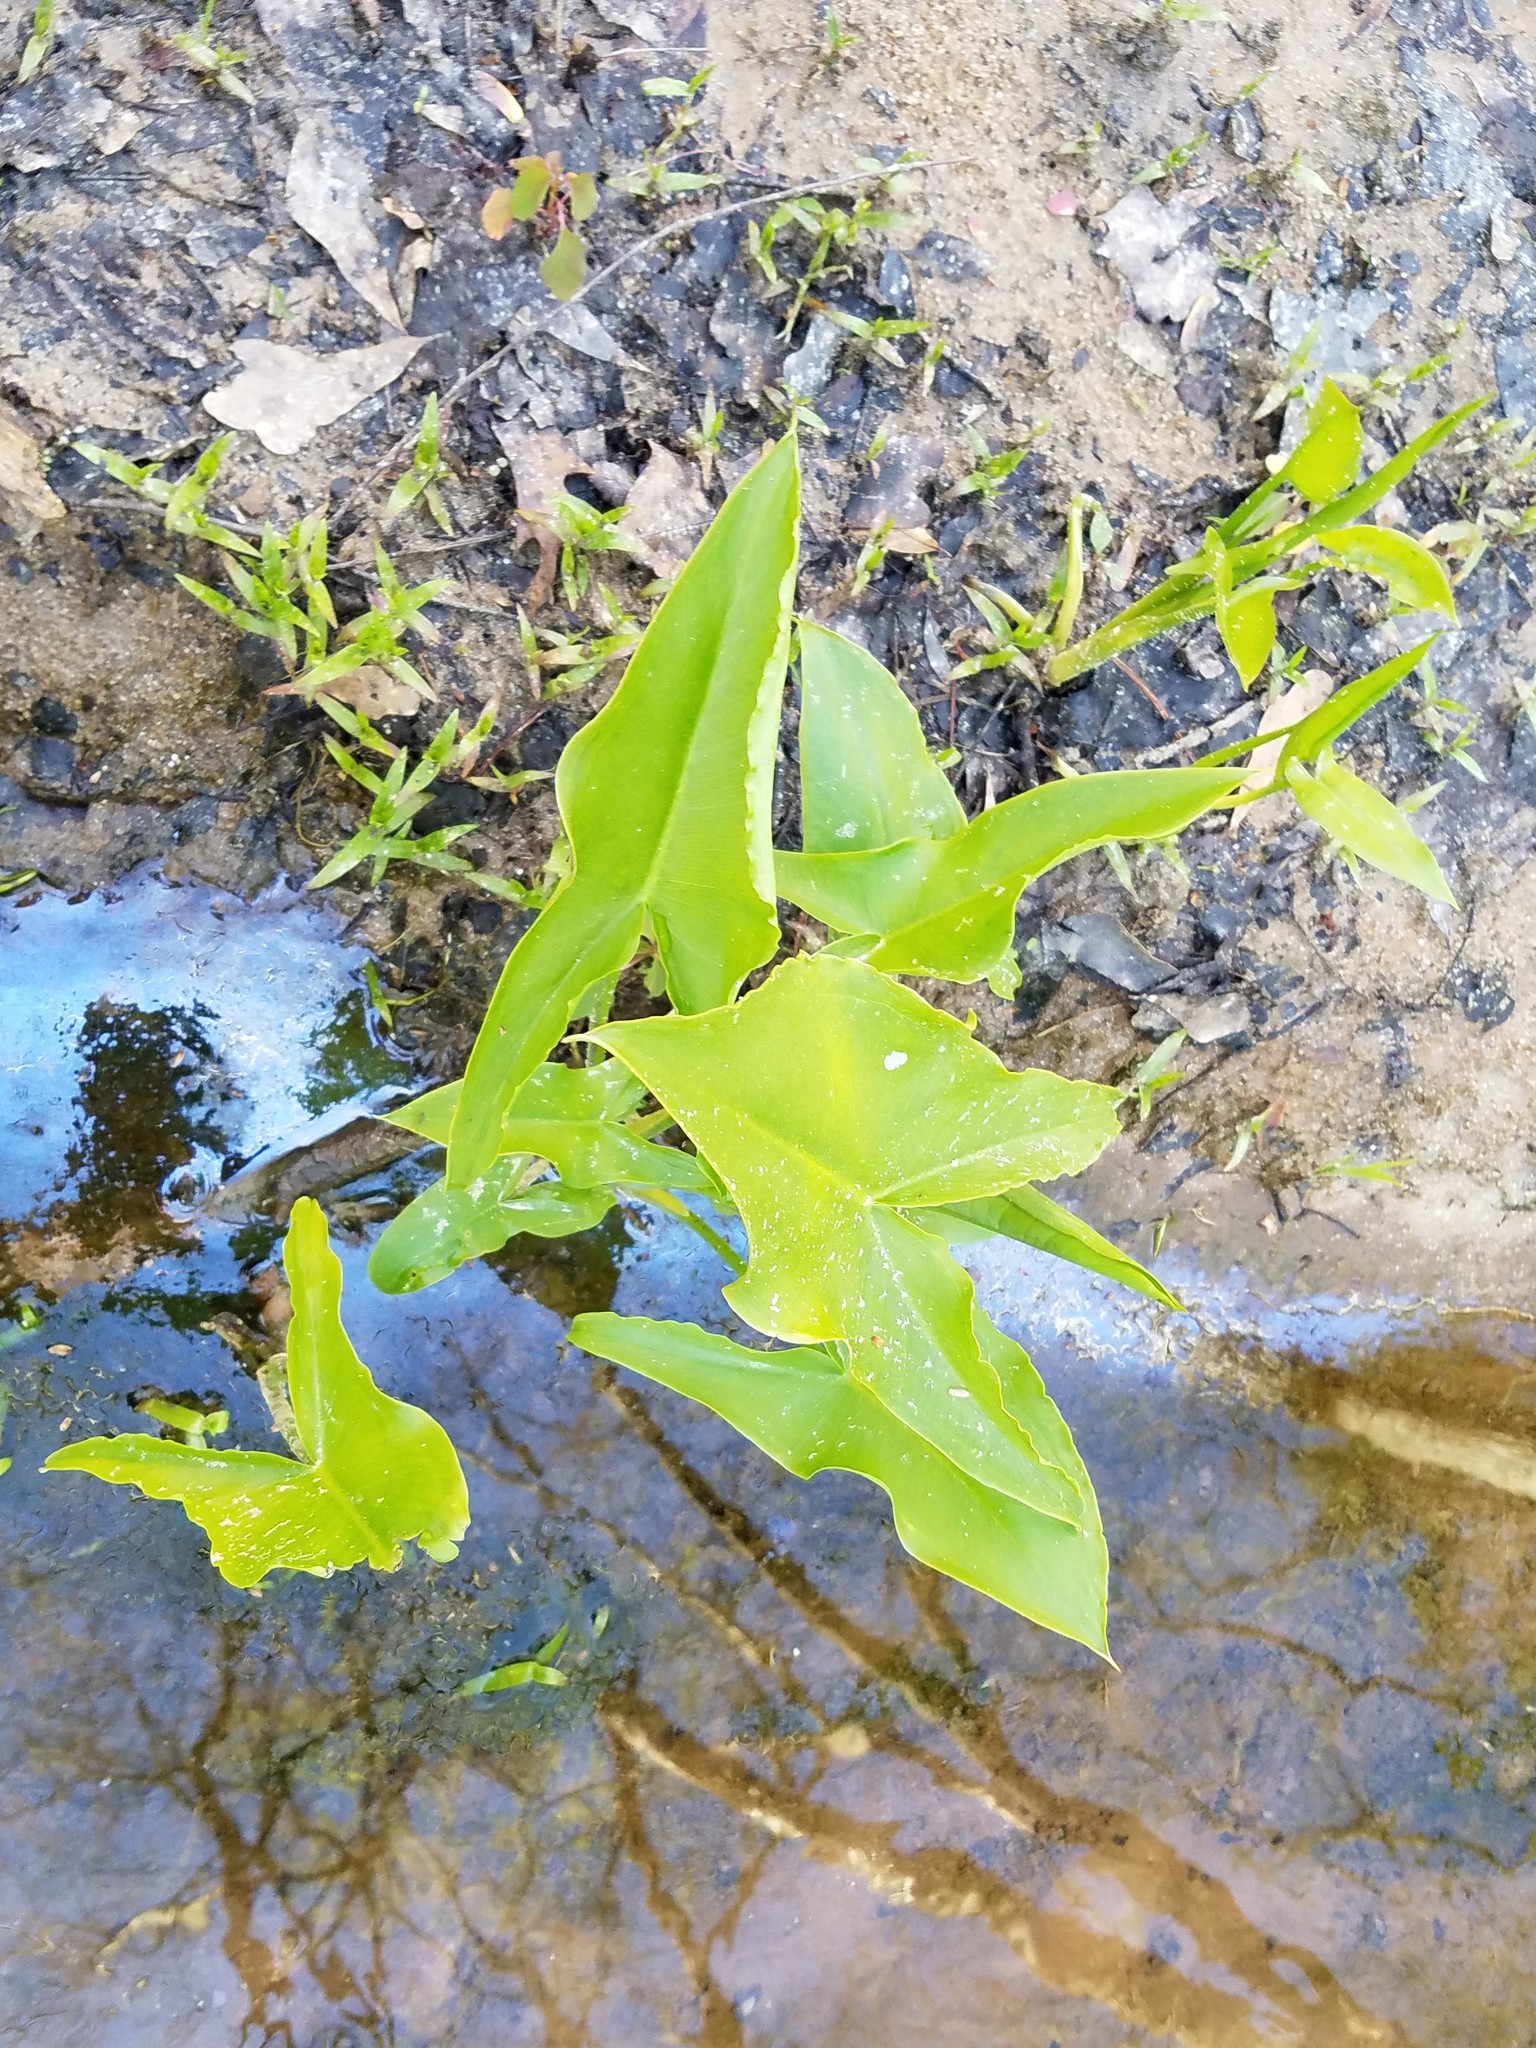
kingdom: Plantae
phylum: Tracheophyta
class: Liliopsida
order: Alismatales
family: Araceae
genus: Peltandra
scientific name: Peltandra virginica
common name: Arrow arum
